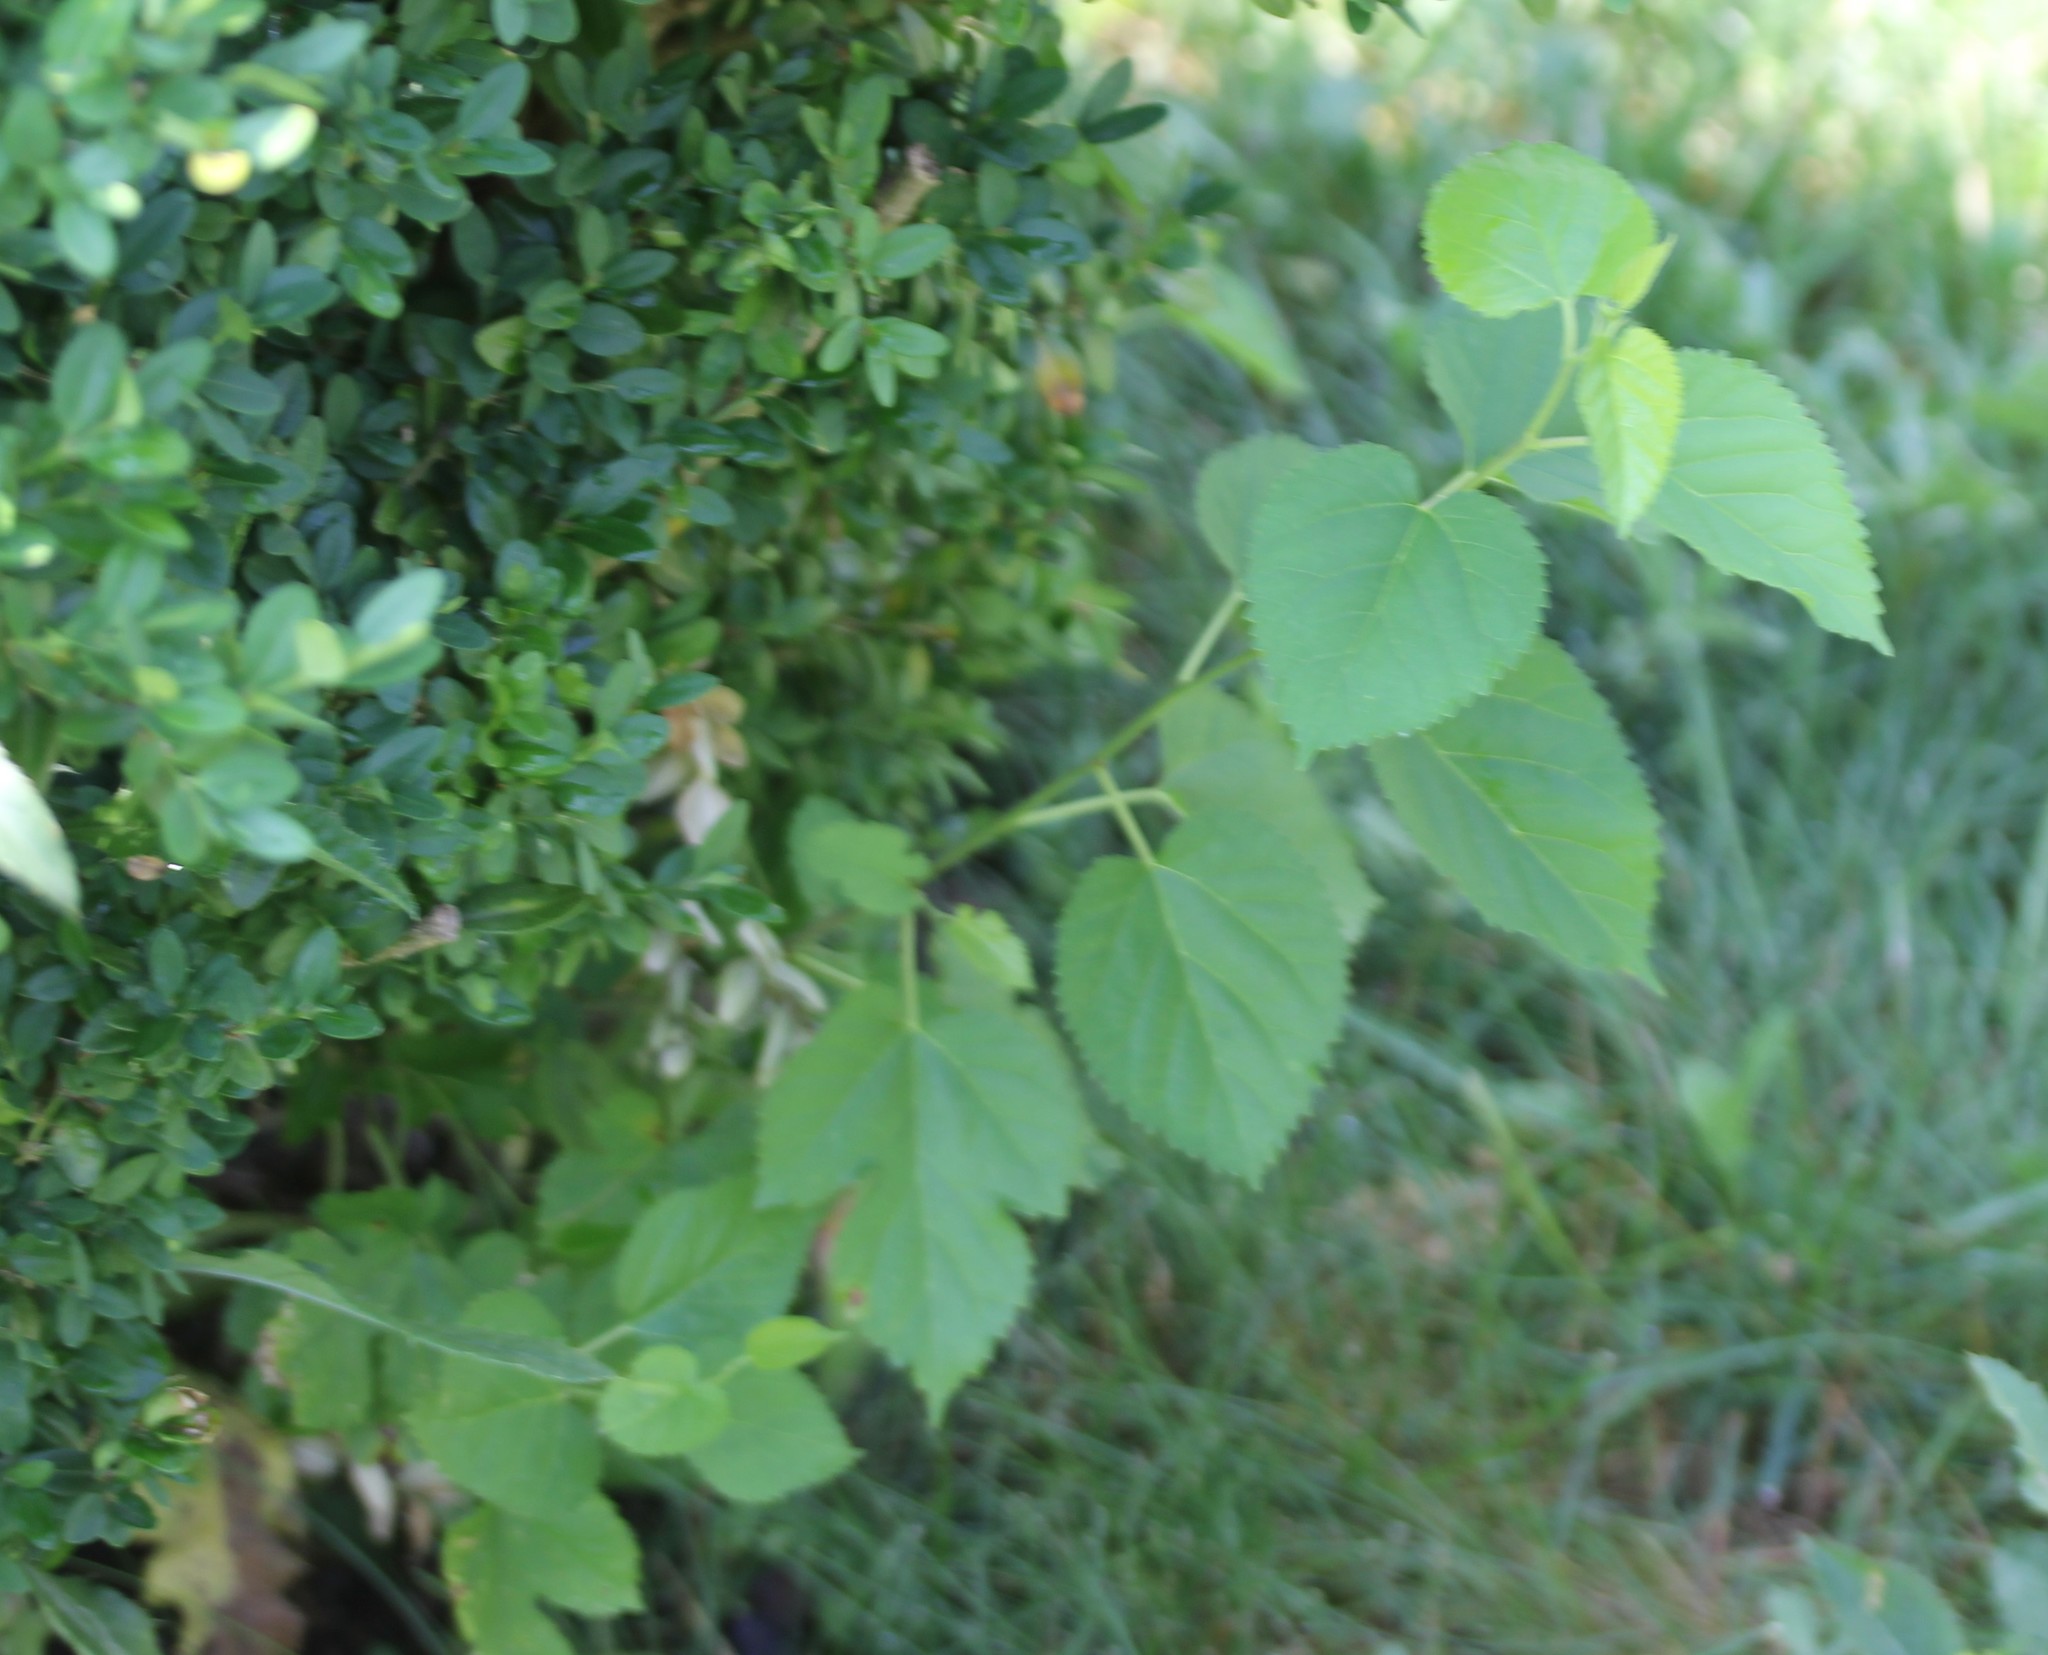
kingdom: Plantae
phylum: Tracheophyta
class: Magnoliopsida
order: Rosales
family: Moraceae
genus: Morus
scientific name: Morus alba
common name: White mulberry
